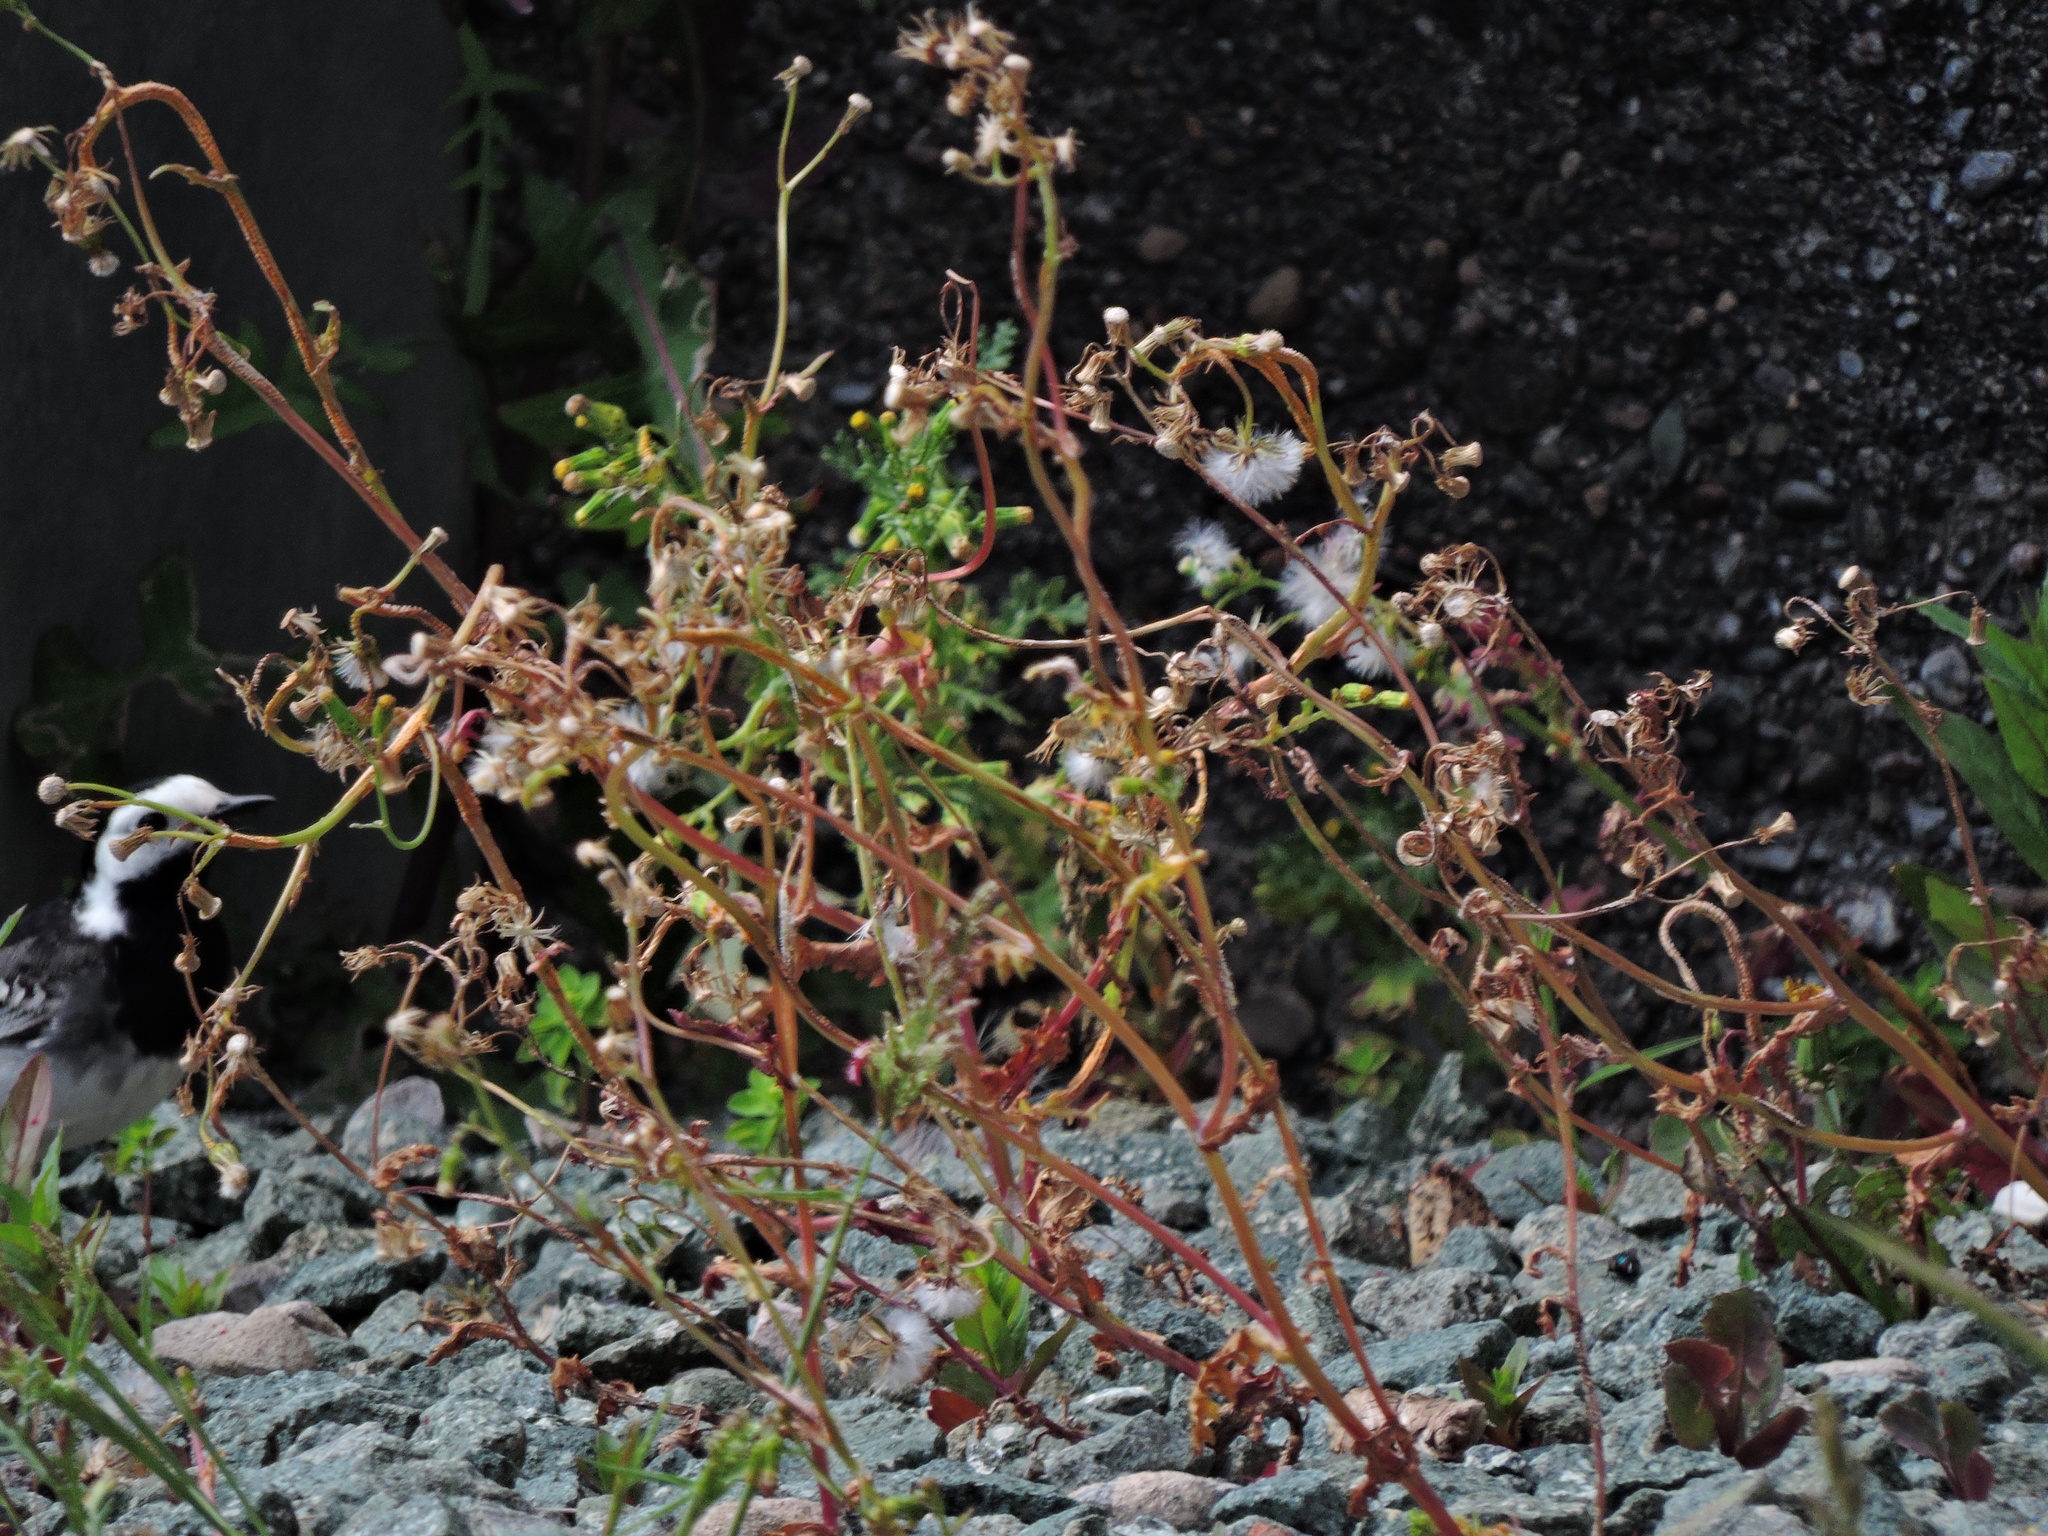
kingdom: Plantae
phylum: Tracheophyta
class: Magnoliopsida
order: Asterales
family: Asteraceae
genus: Senecio
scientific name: Senecio vulgaris
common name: Old-man-in-the-spring
